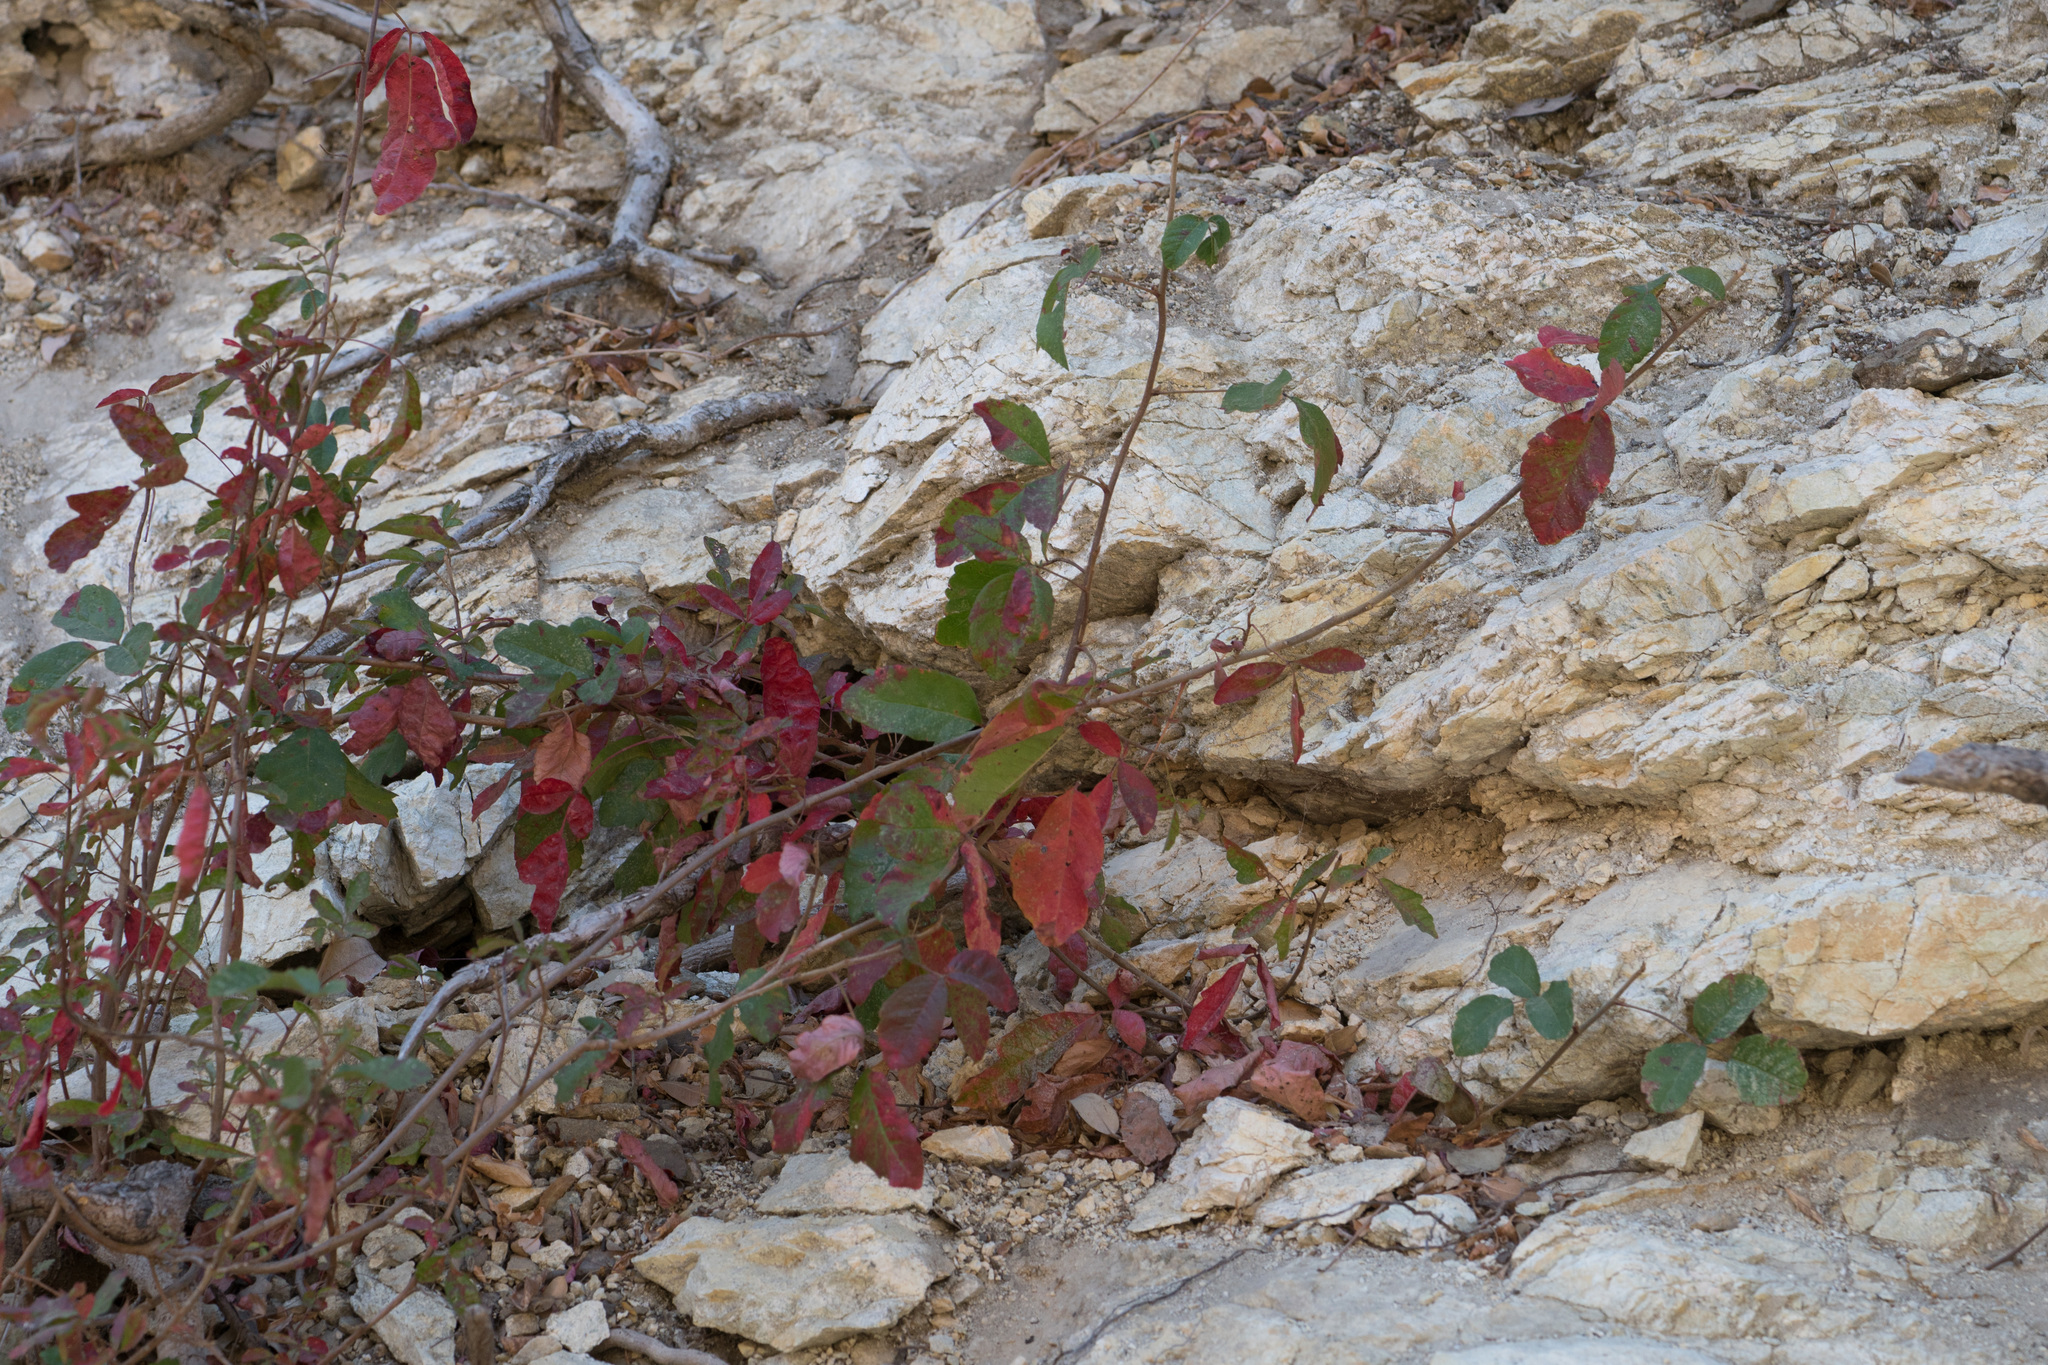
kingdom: Plantae
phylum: Tracheophyta
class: Magnoliopsida
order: Sapindales
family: Anacardiaceae
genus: Toxicodendron
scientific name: Toxicodendron diversilobum
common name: Pacific poison-oak
